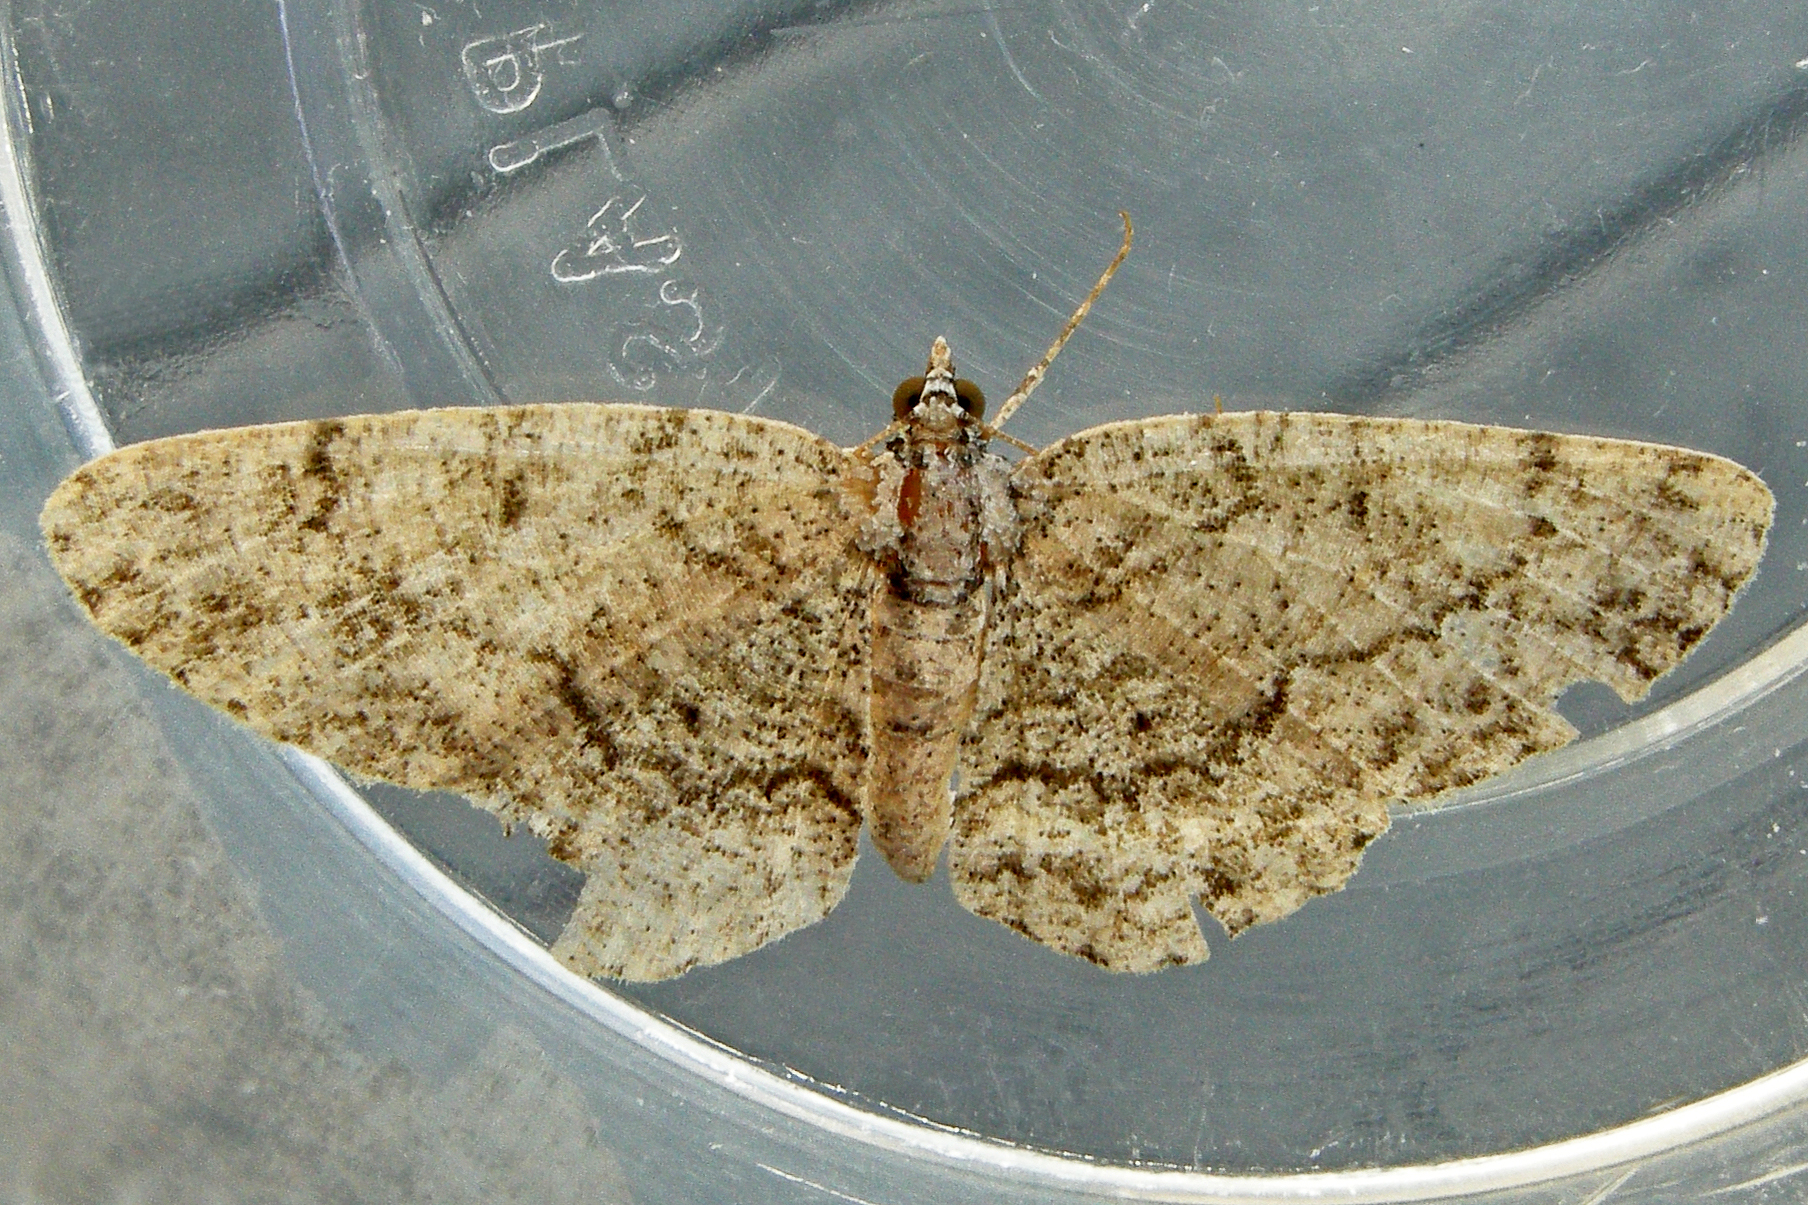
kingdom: Animalia
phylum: Arthropoda
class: Insecta
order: Lepidoptera
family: Geometridae
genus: Protoboarmia
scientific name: Protoboarmia porcelaria
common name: Porcelain gray
